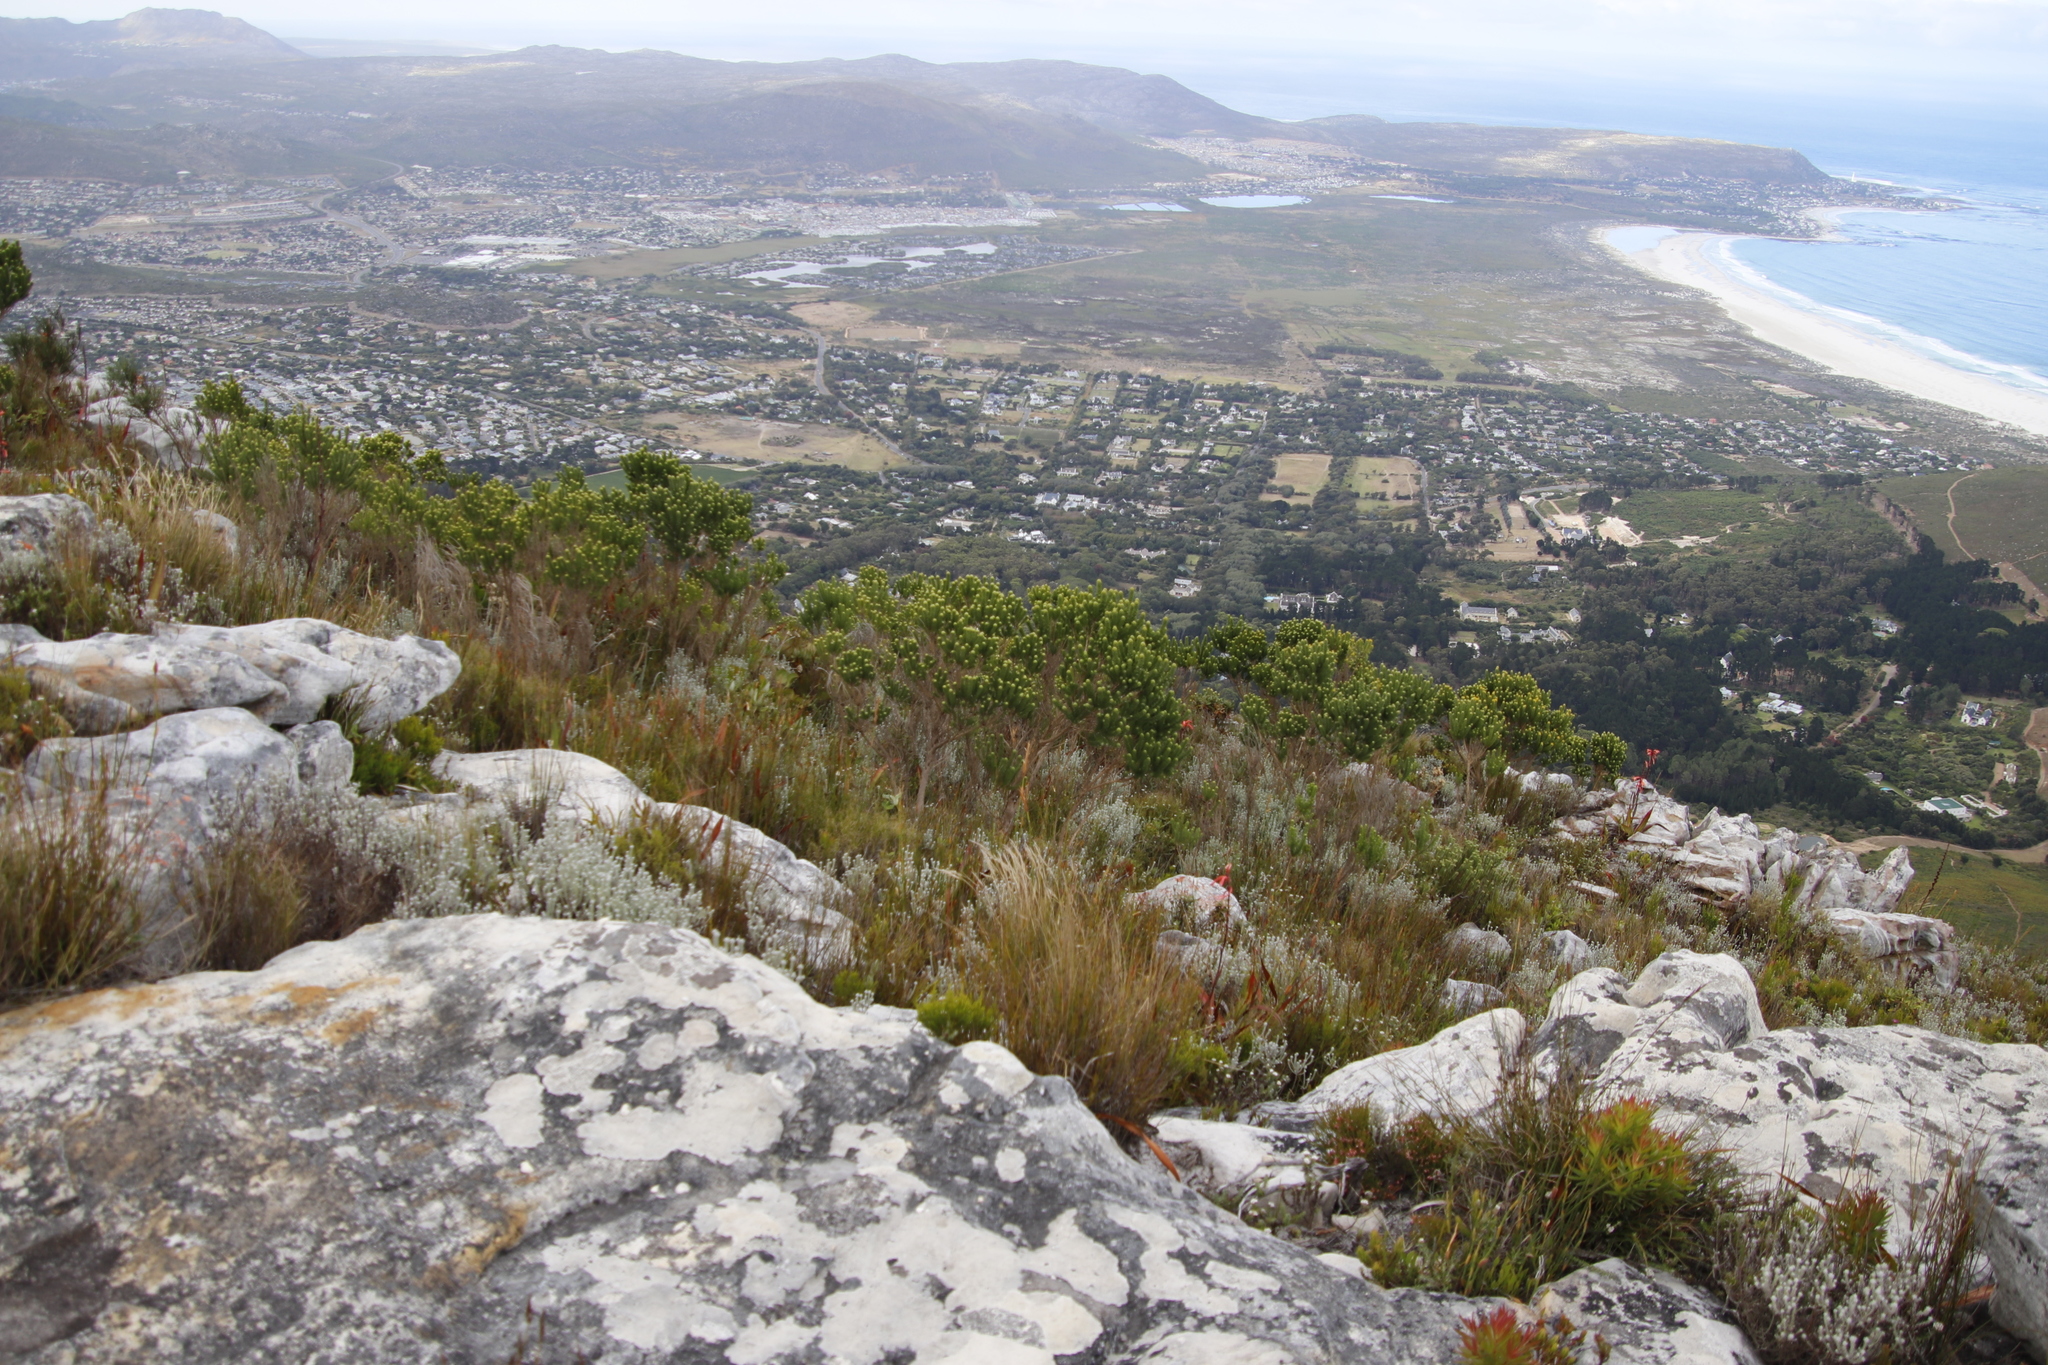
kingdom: Plantae
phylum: Tracheophyta
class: Magnoliopsida
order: Fabales
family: Fabaceae
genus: Aspalathus
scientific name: Aspalathus capitata
